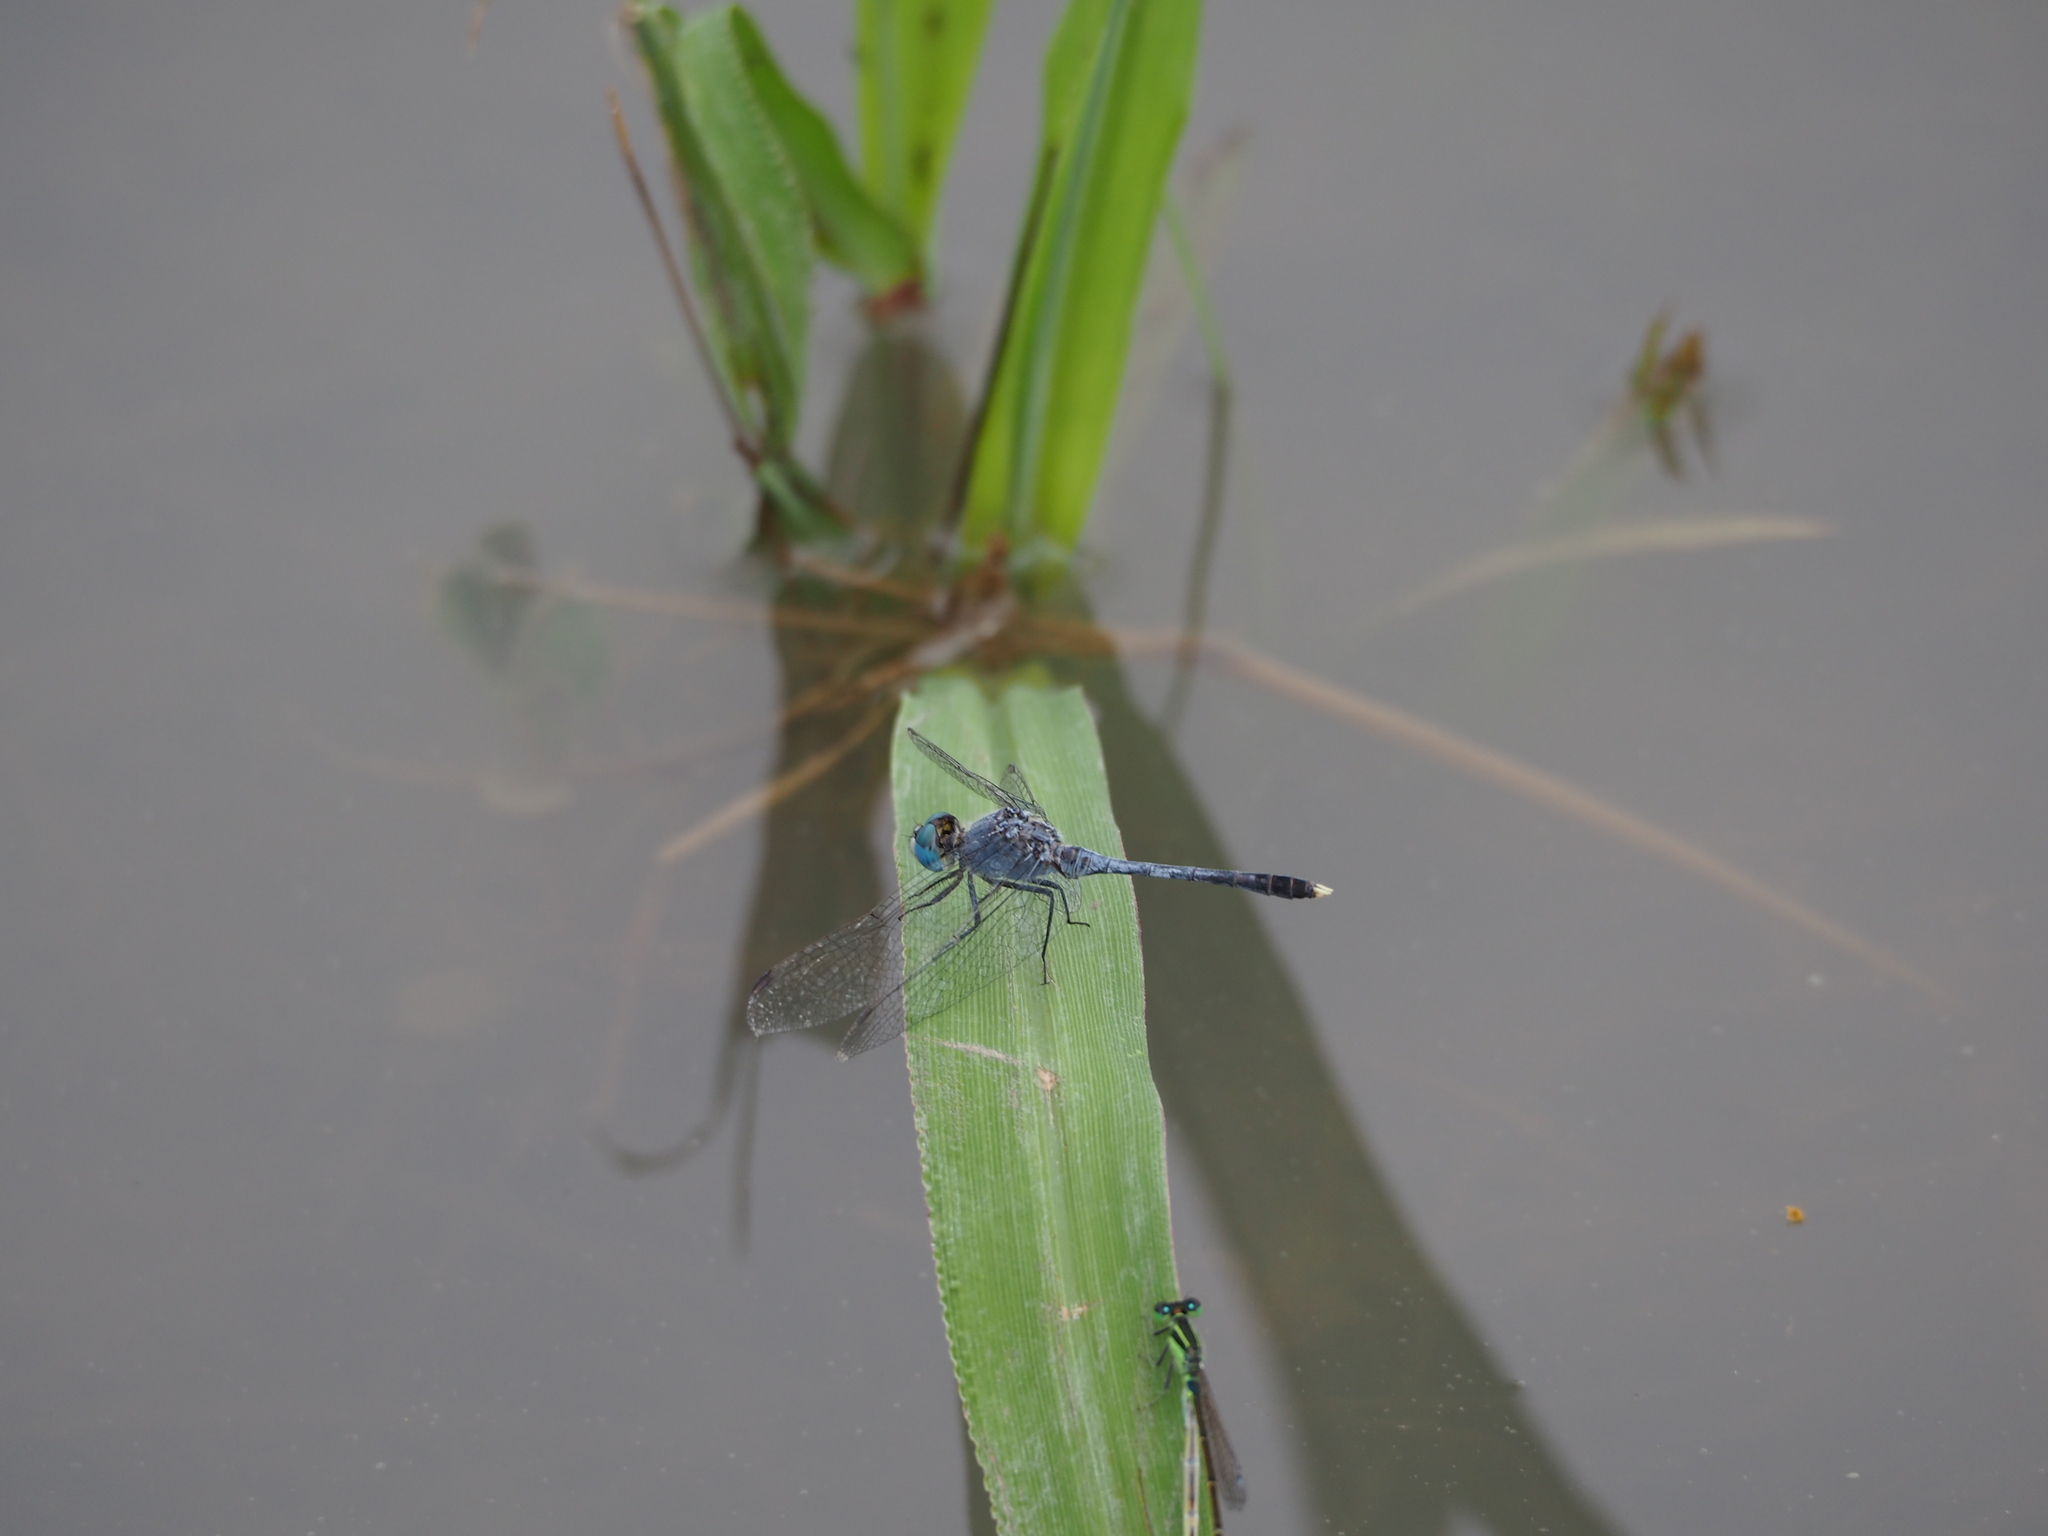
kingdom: Animalia
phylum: Arthropoda
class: Insecta
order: Odonata
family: Libellulidae
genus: Diplacodes
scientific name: Diplacodes trivialis
